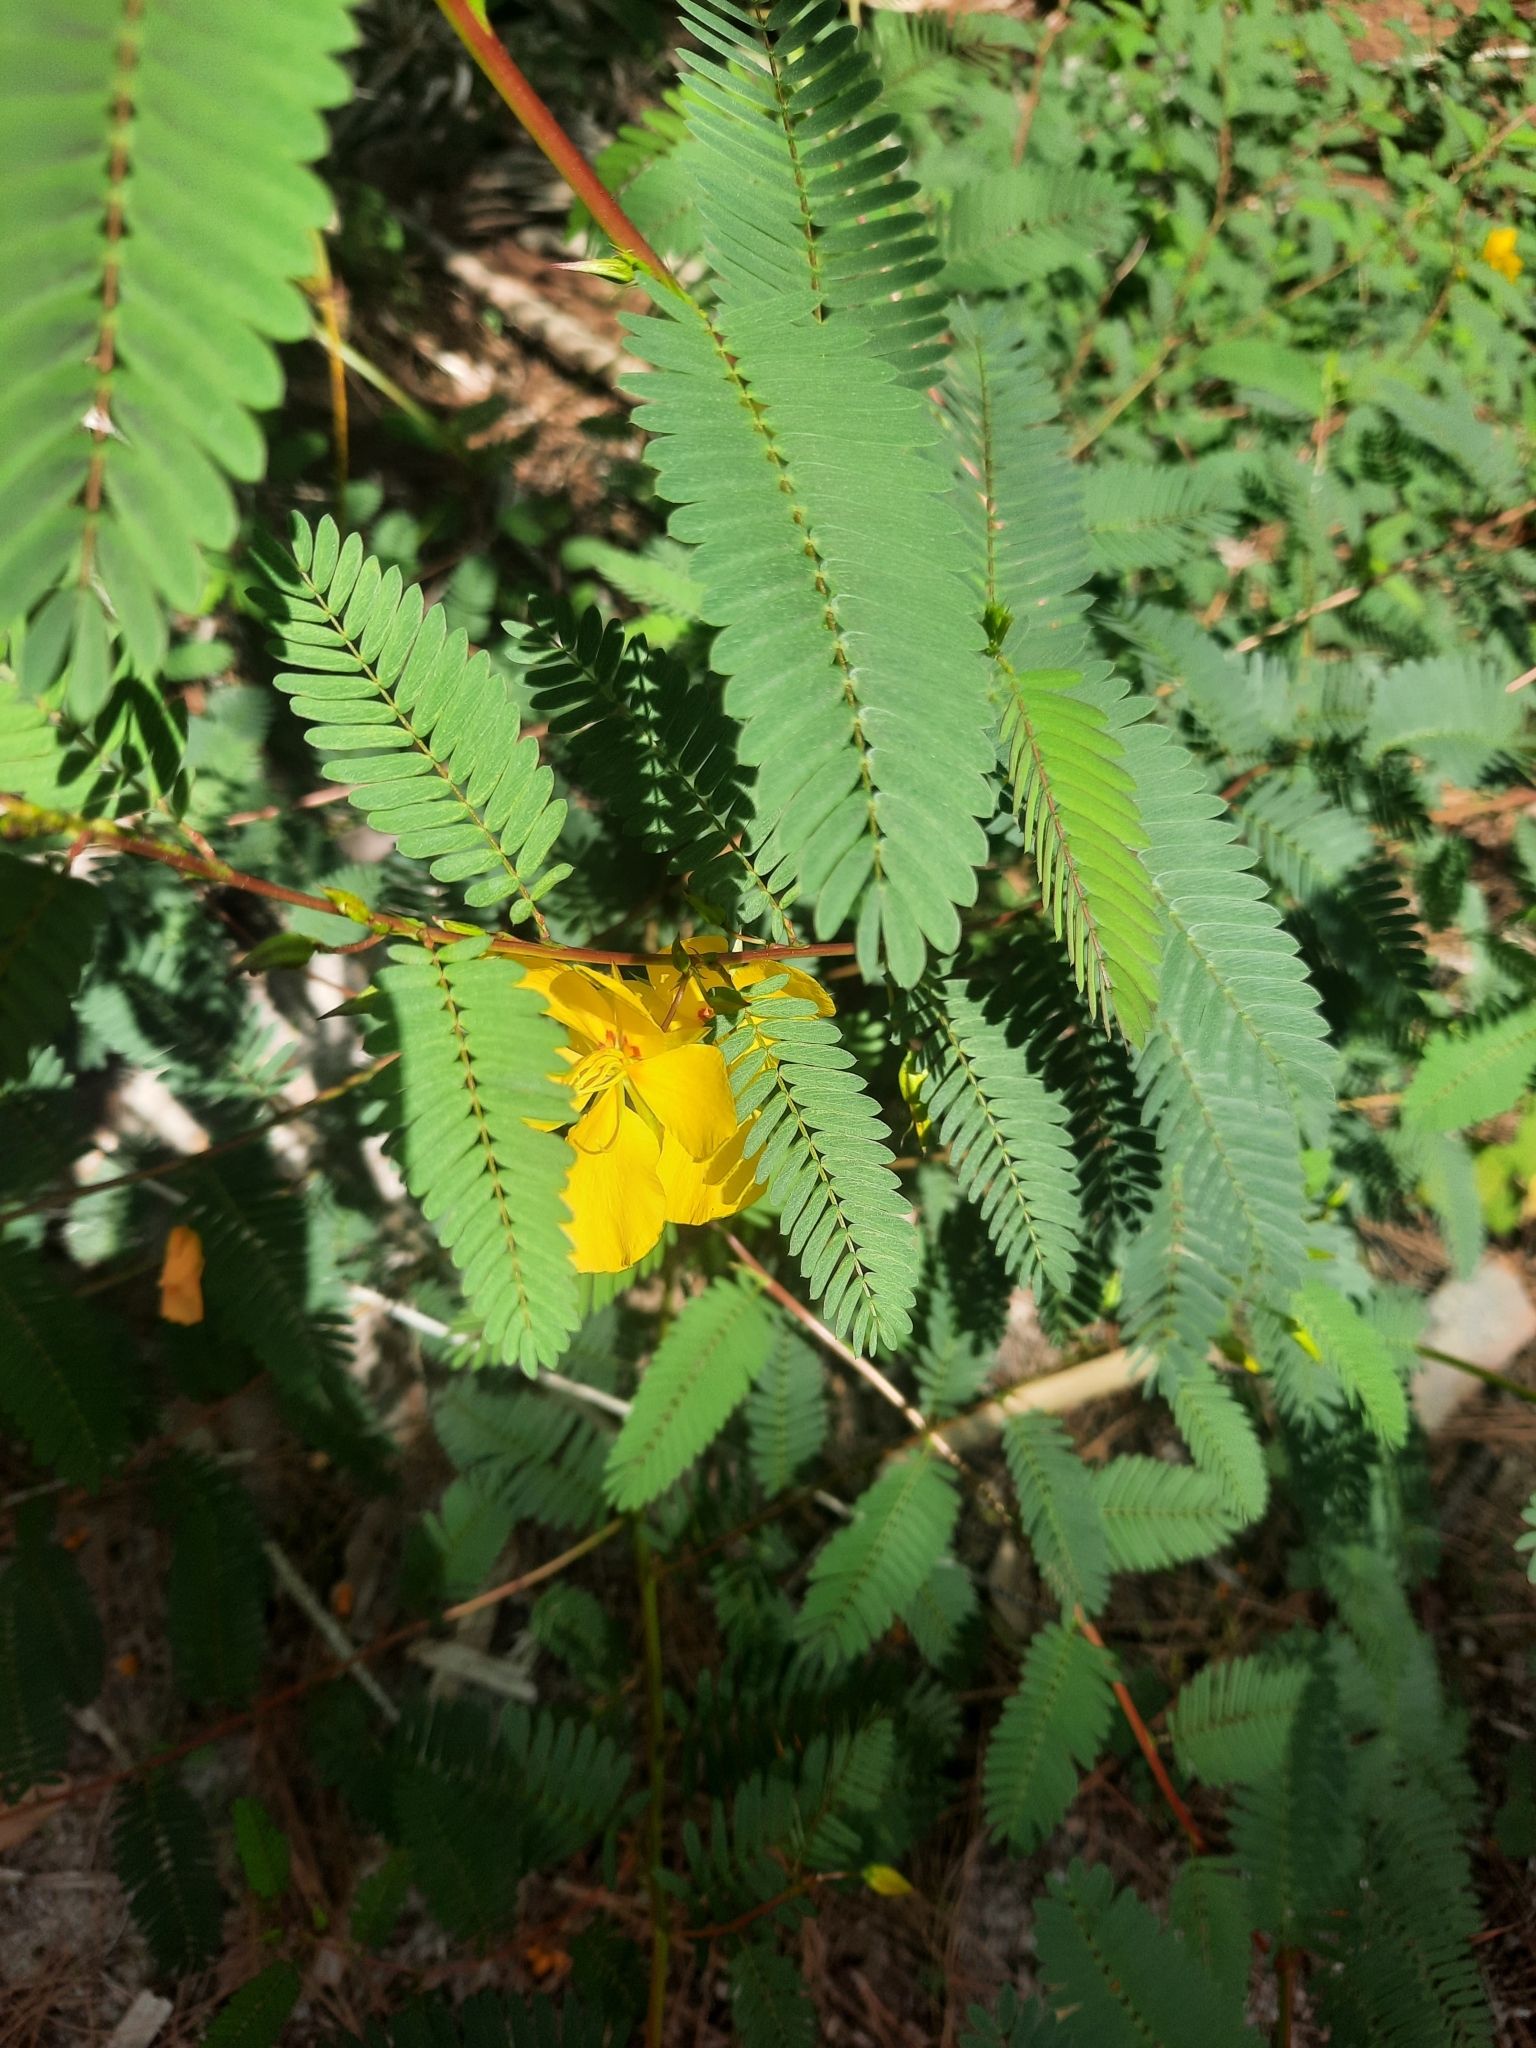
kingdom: Plantae
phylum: Tracheophyta
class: Magnoliopsida
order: Fabales
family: Fabaceae
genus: Chamaecrista
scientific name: Chamaecrista fasciculata
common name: Golden cassia
